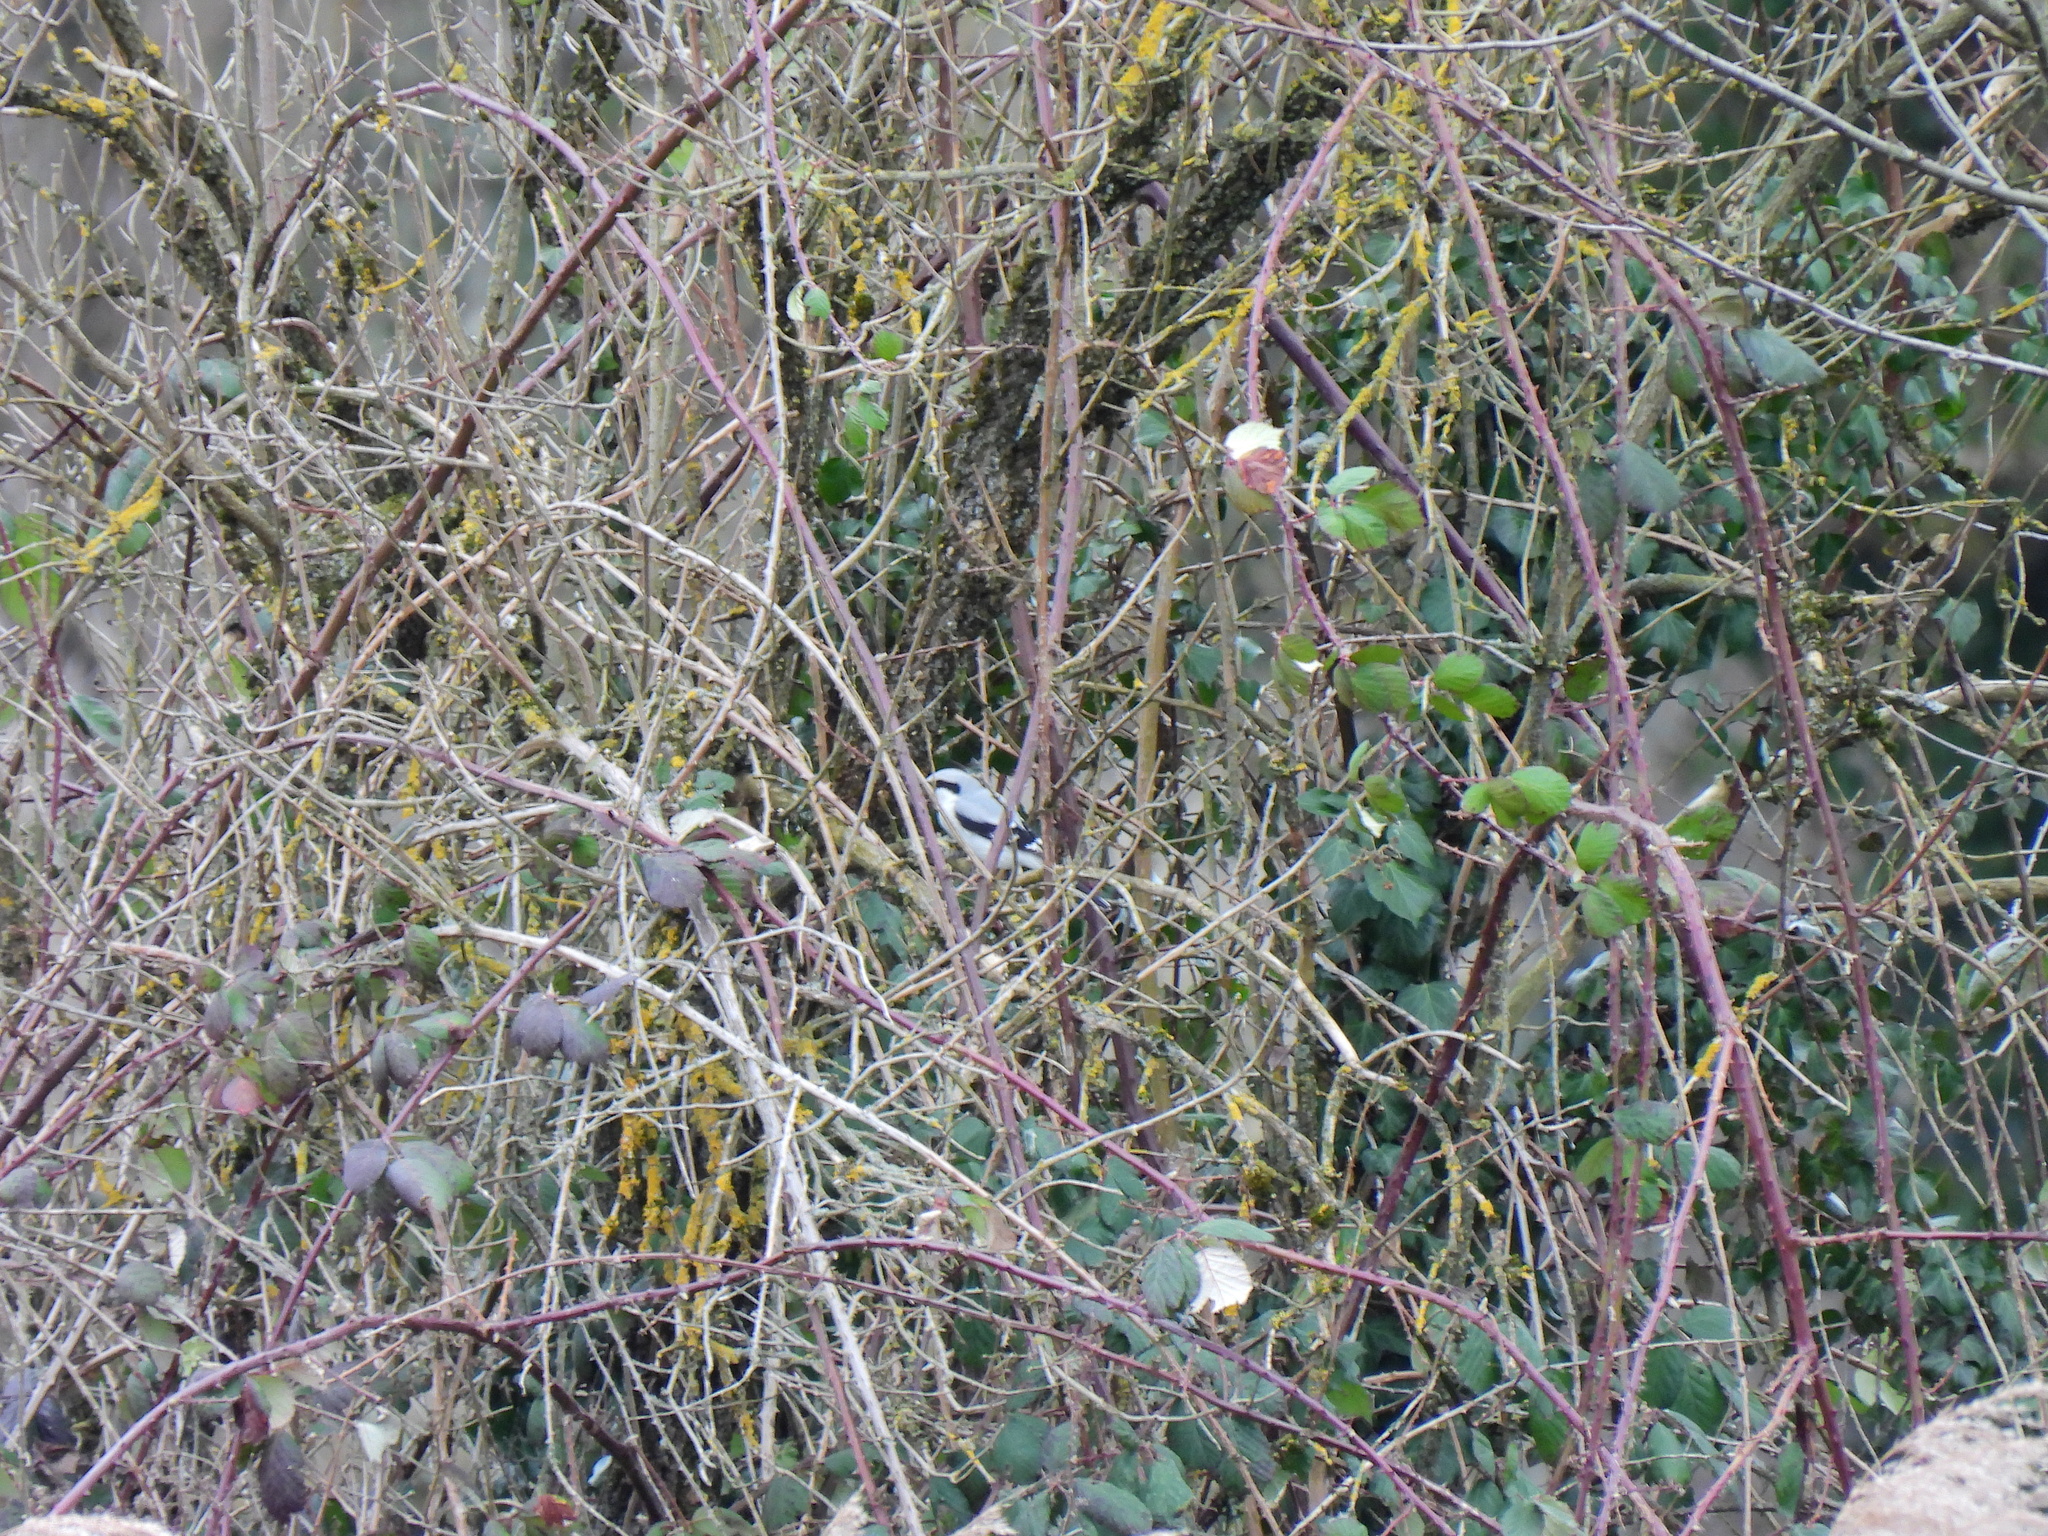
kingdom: Animalia
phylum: Chordata
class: Aves
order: Passeriformes
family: Laniidae
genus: Lanius
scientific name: Lanius excubitor
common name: Great grey shrike
